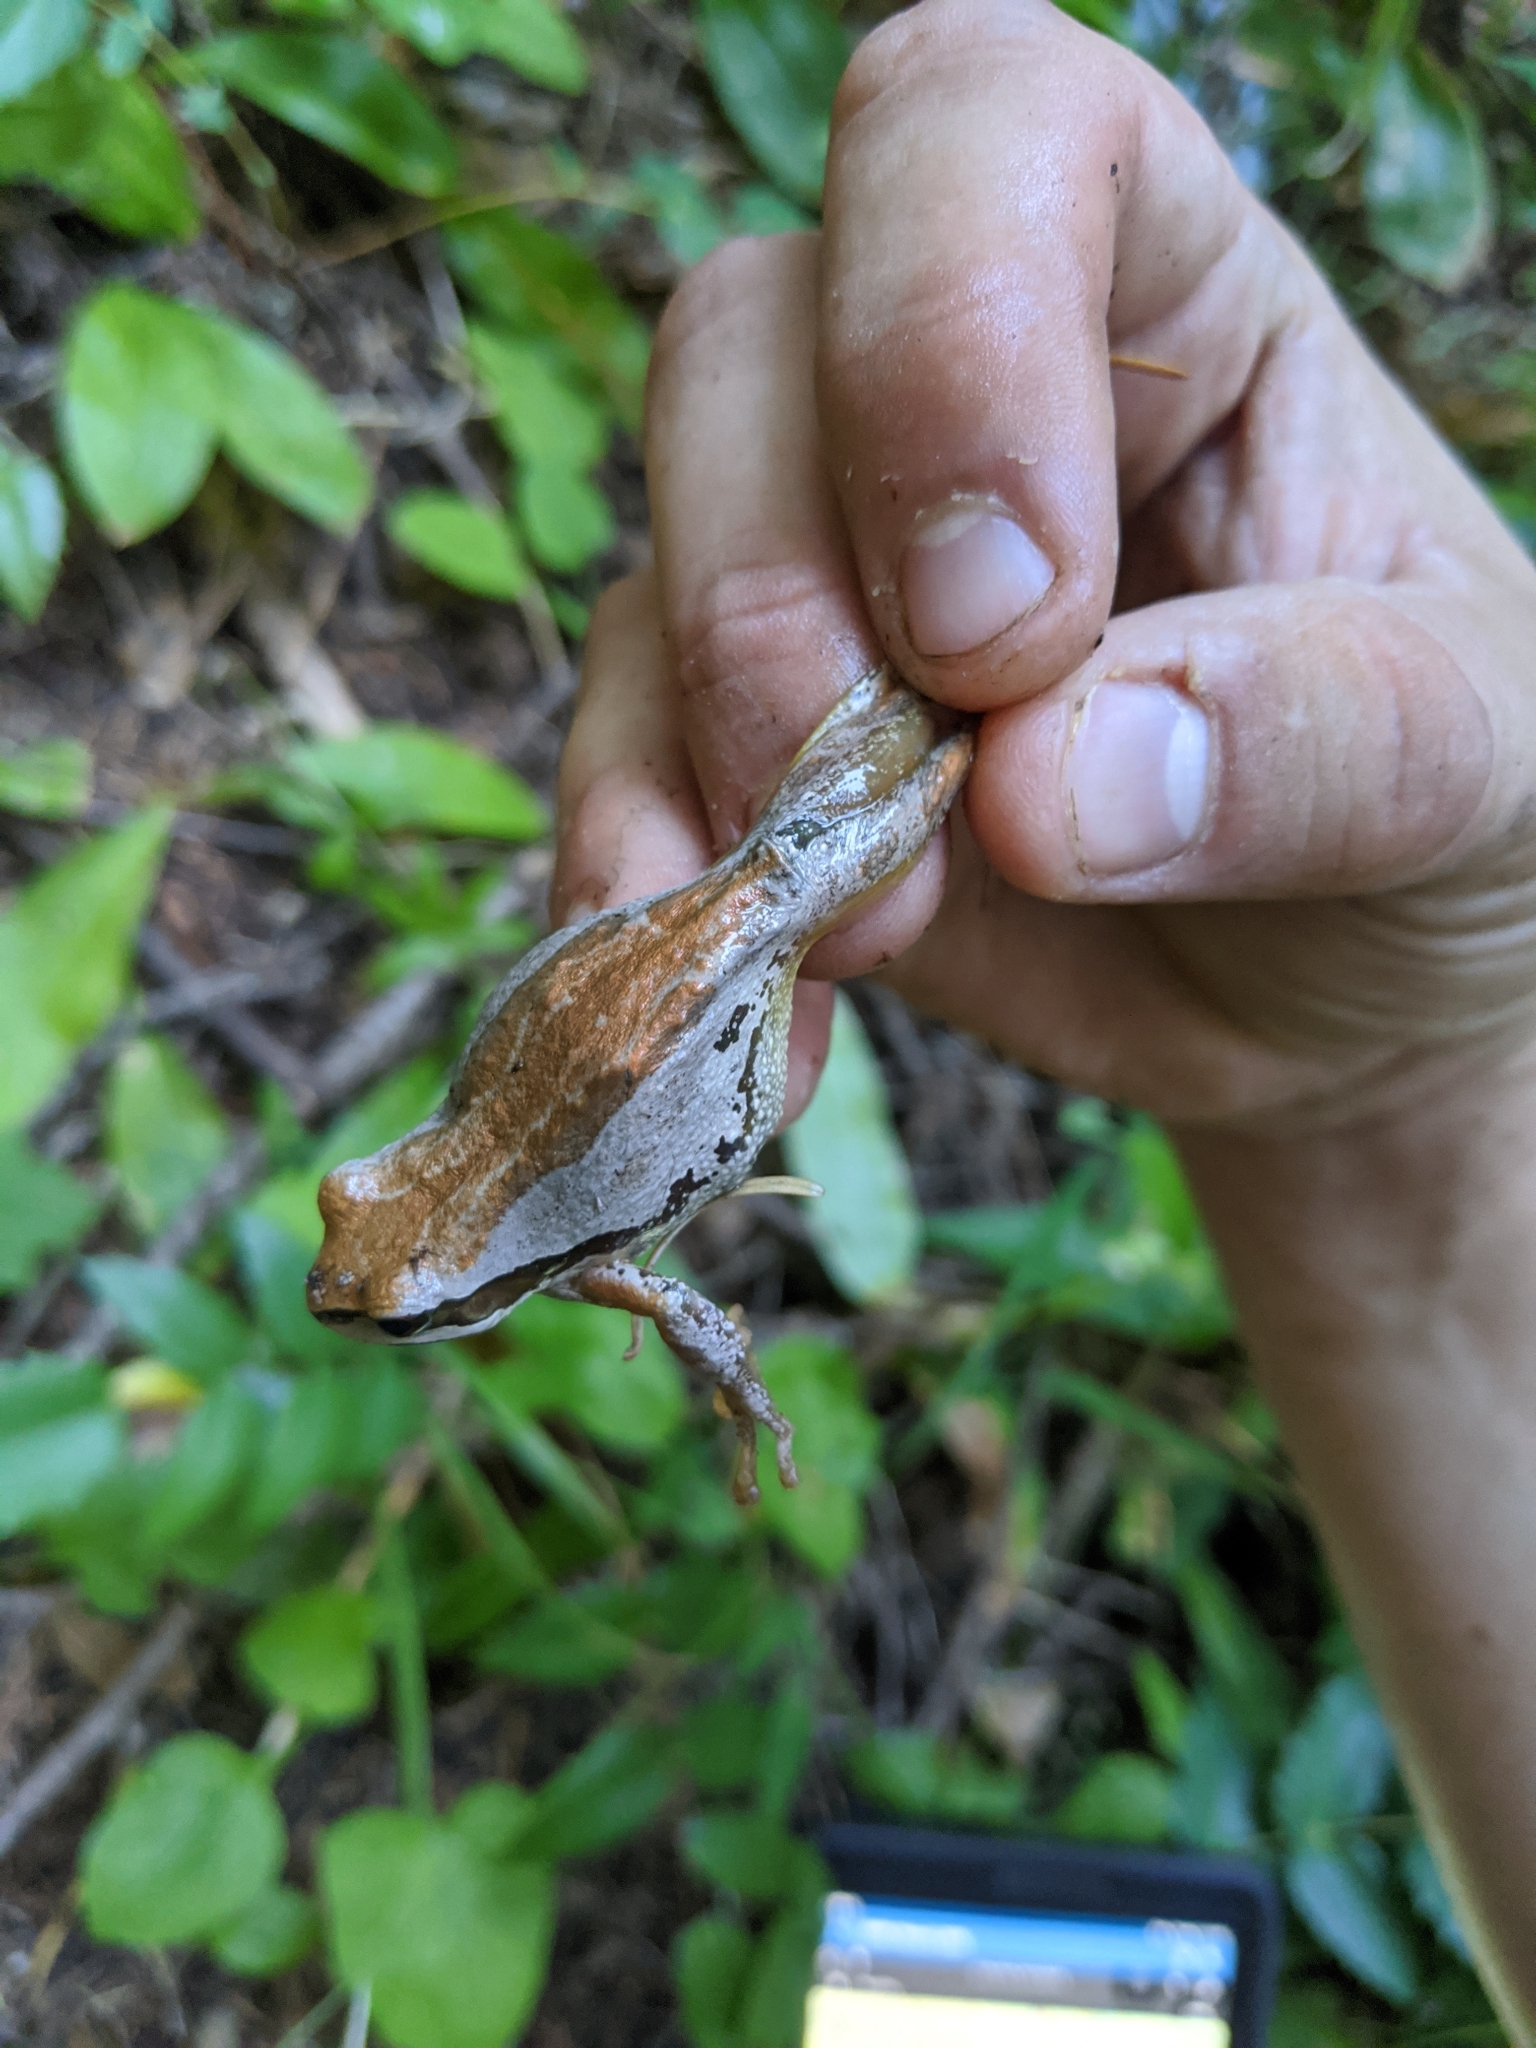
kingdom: Animalia
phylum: Chordata
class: Amphibia
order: Anura
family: Hylidae
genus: Pseudacris
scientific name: Pseudacris regilla
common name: Pacific chorus frog
